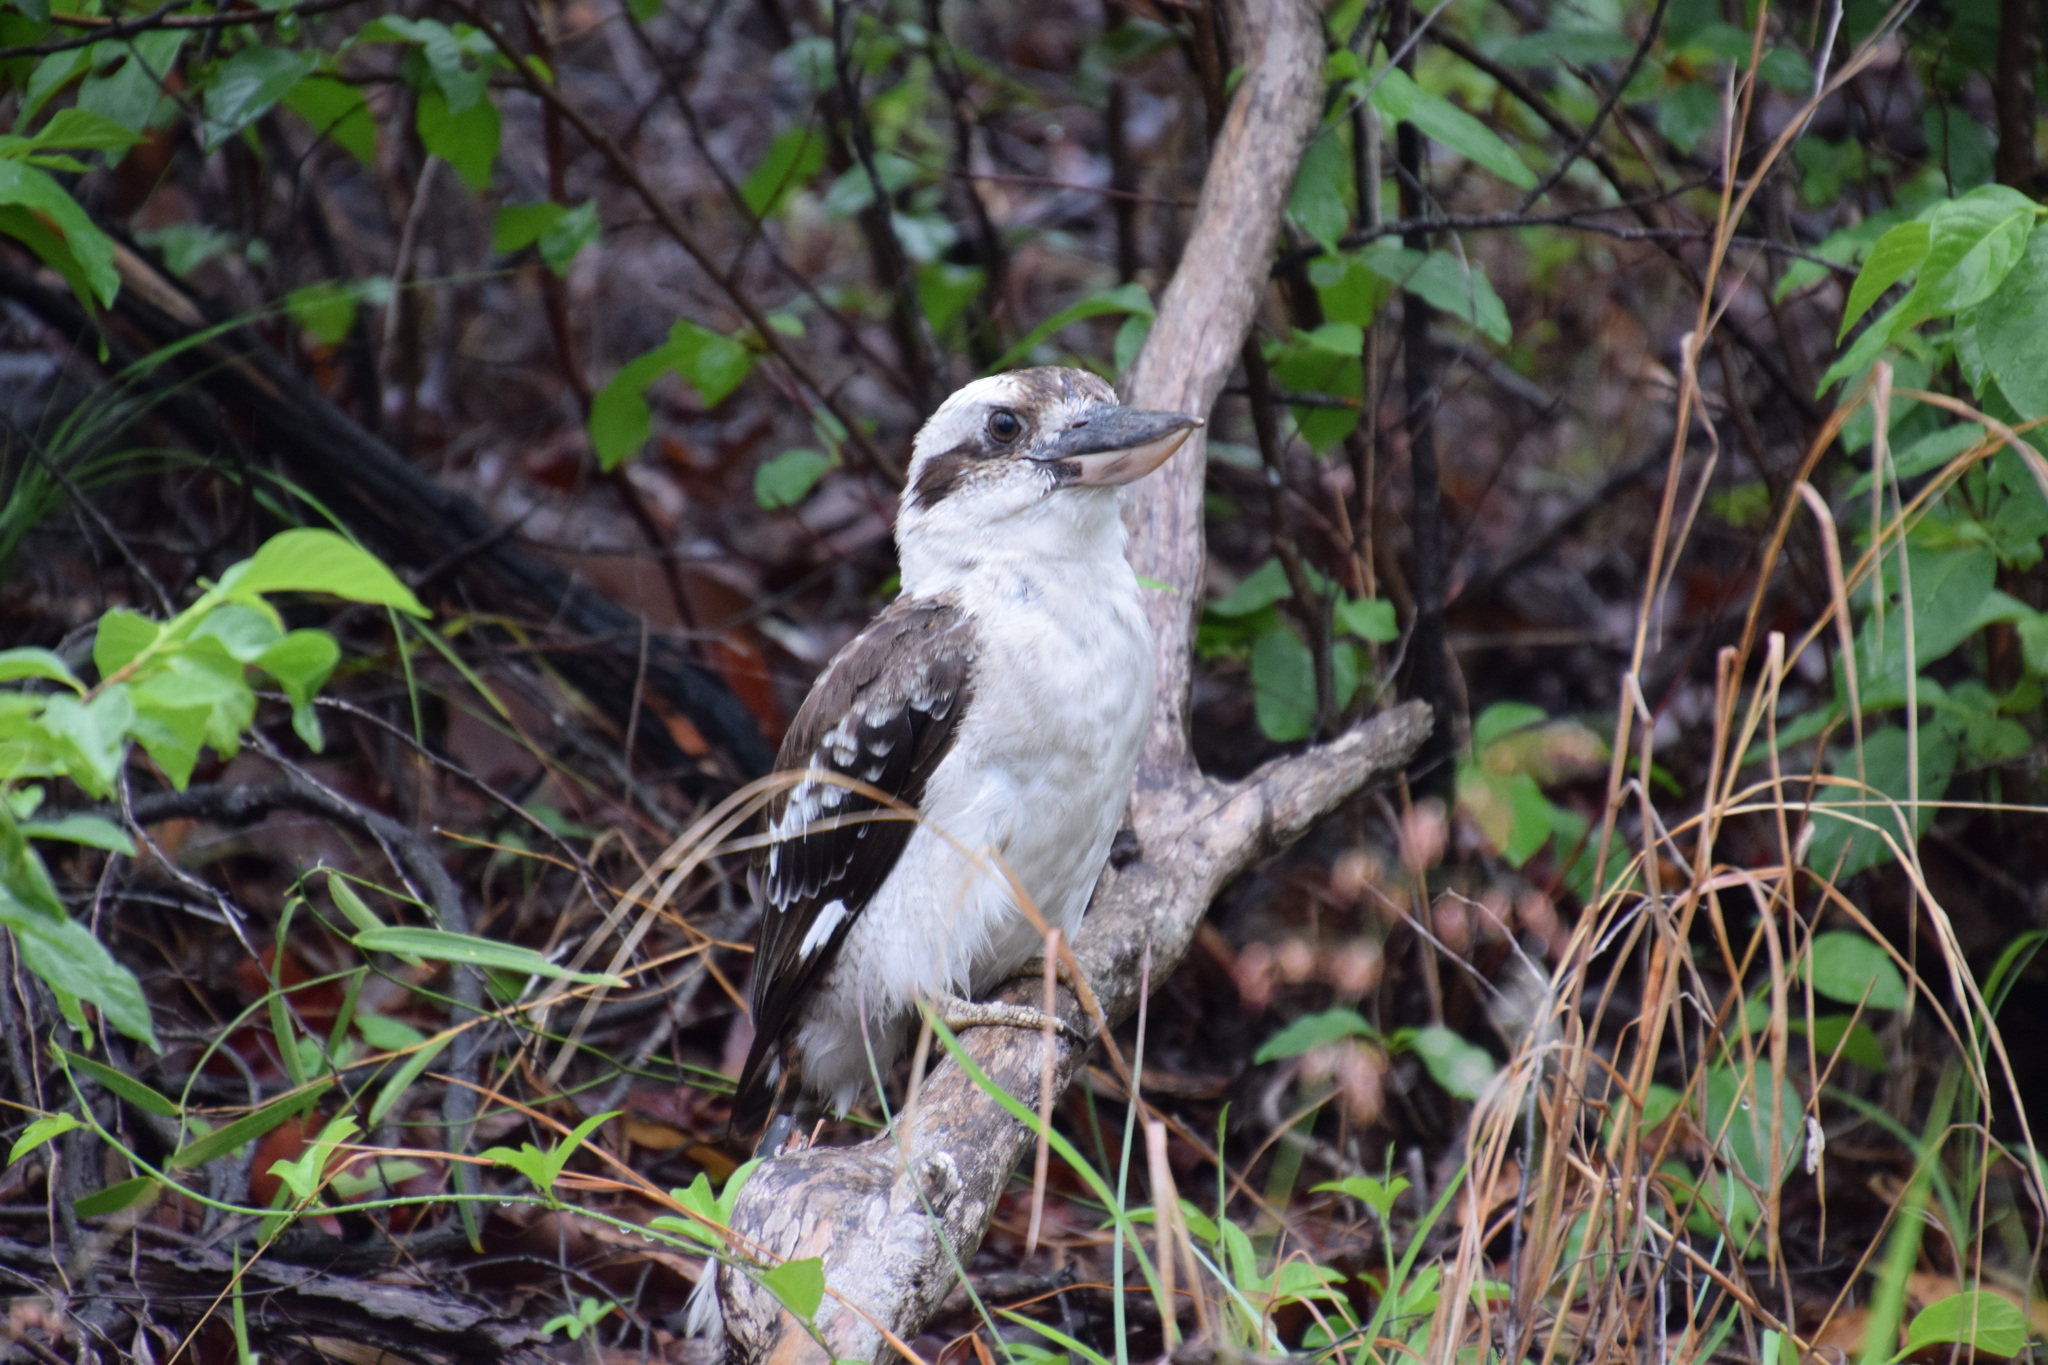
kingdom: Animalia
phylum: Chordata
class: Aves
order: Coraciiformes
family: Alcedinidae
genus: Dacelo
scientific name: Dacelo novaeguineae
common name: Laughing kookaburra
